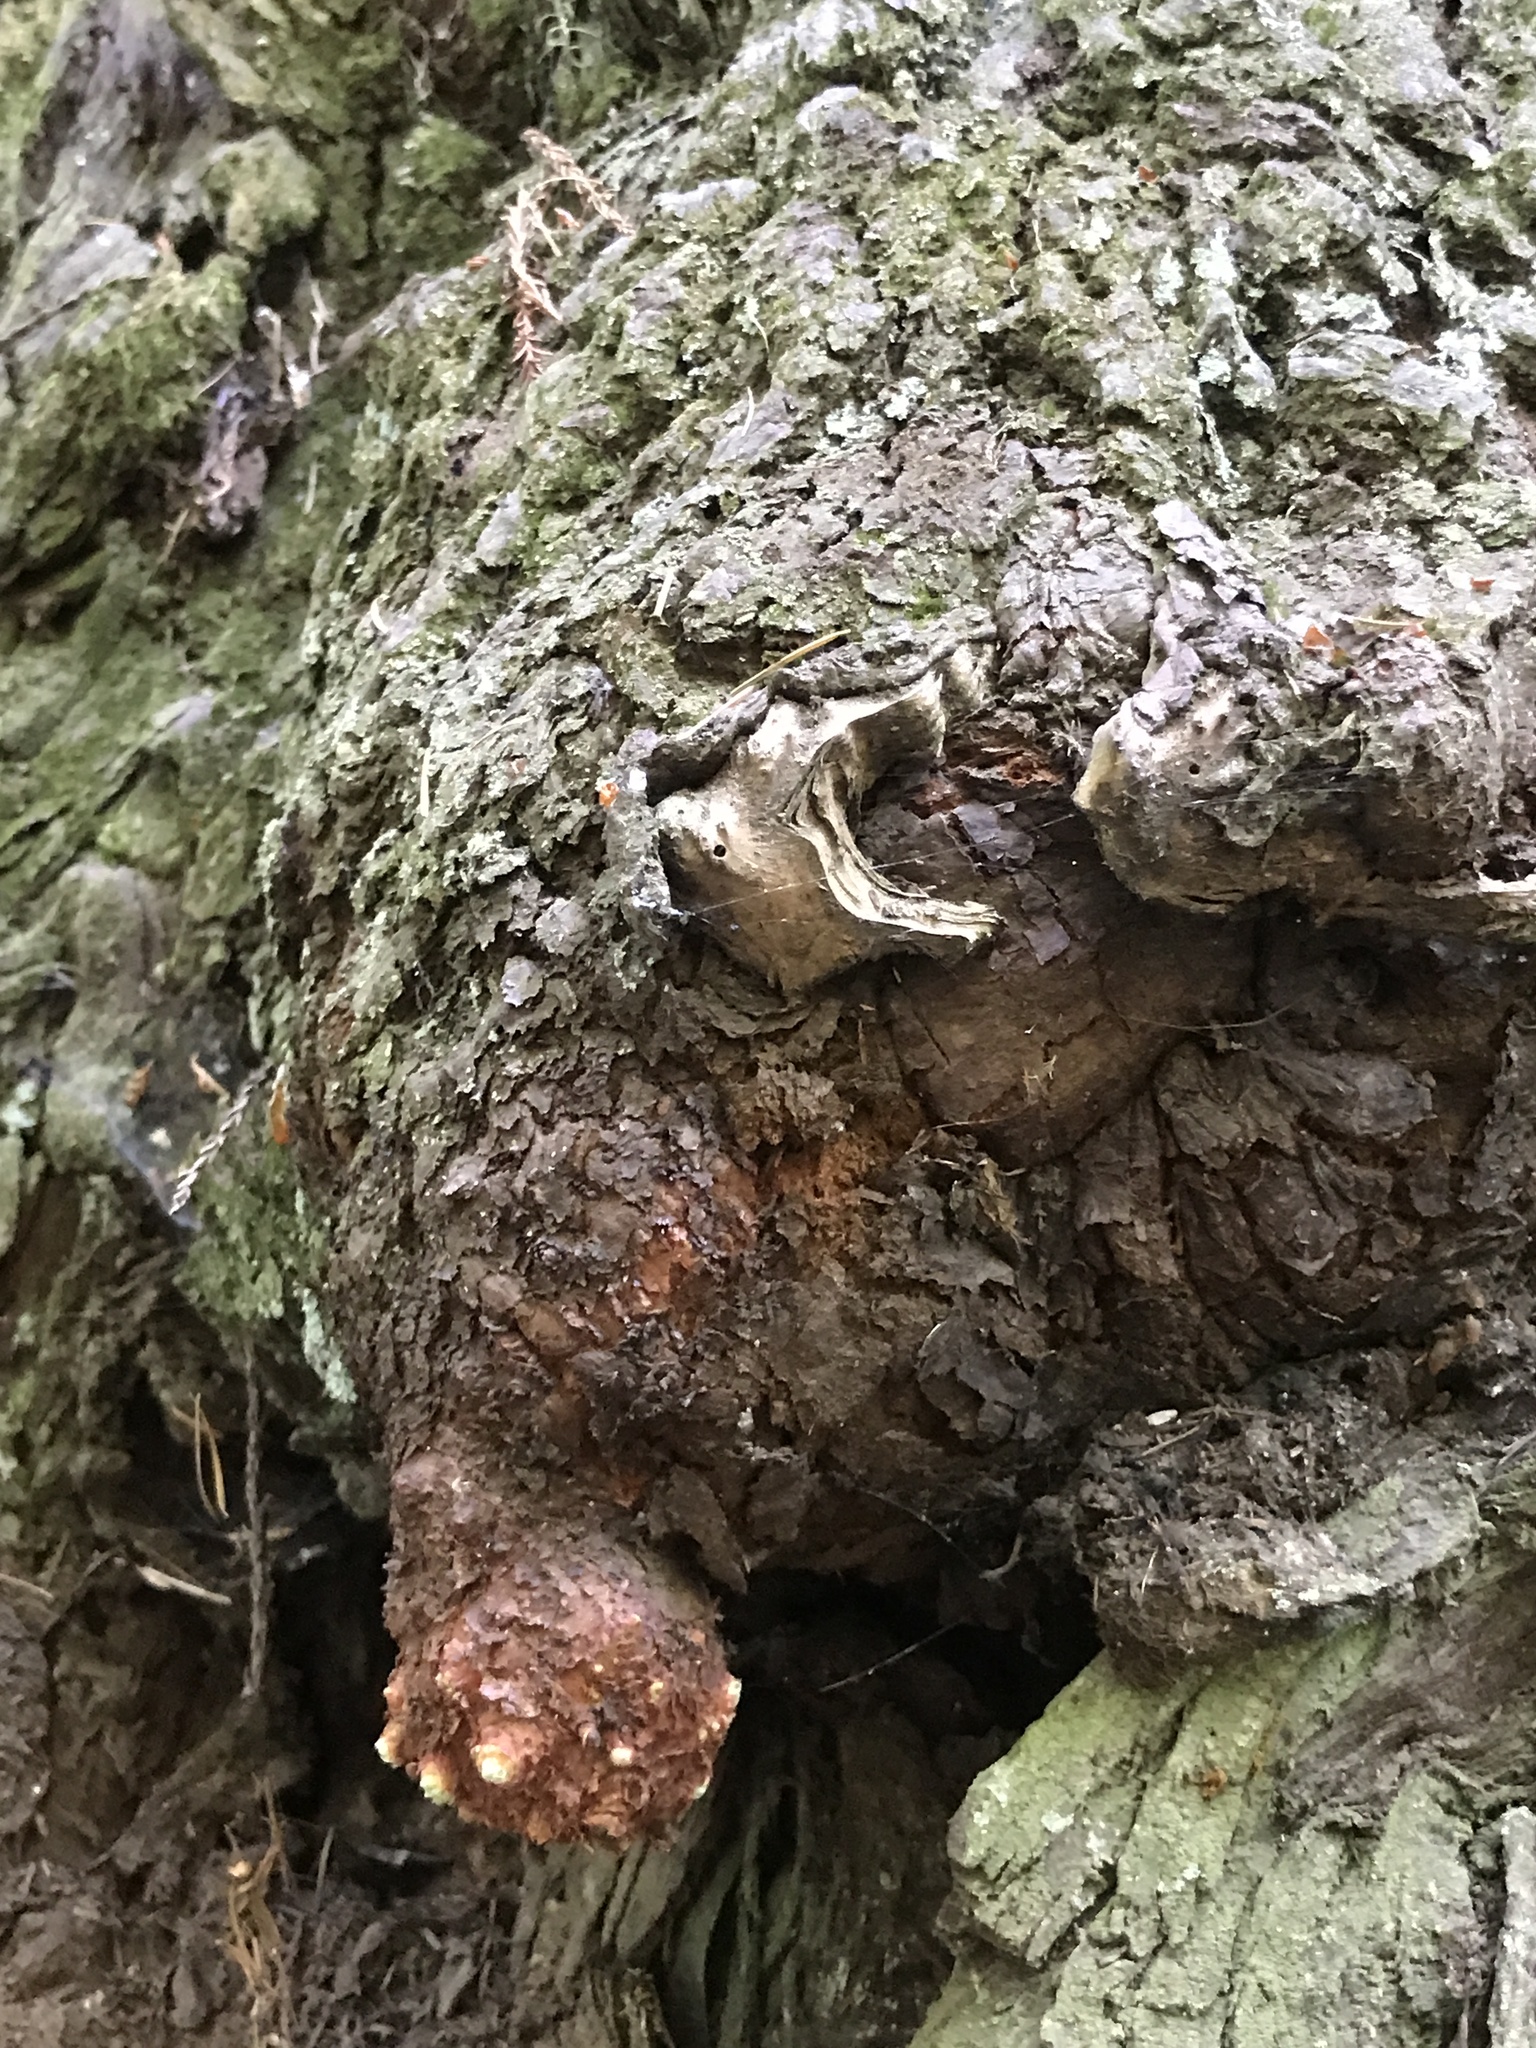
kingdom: Plantae
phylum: Tracheophyta
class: Pinopsida
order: Pinales
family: Cupressaceae
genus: Sequoia
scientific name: Sequoia sempervirens
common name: Coast redwood
